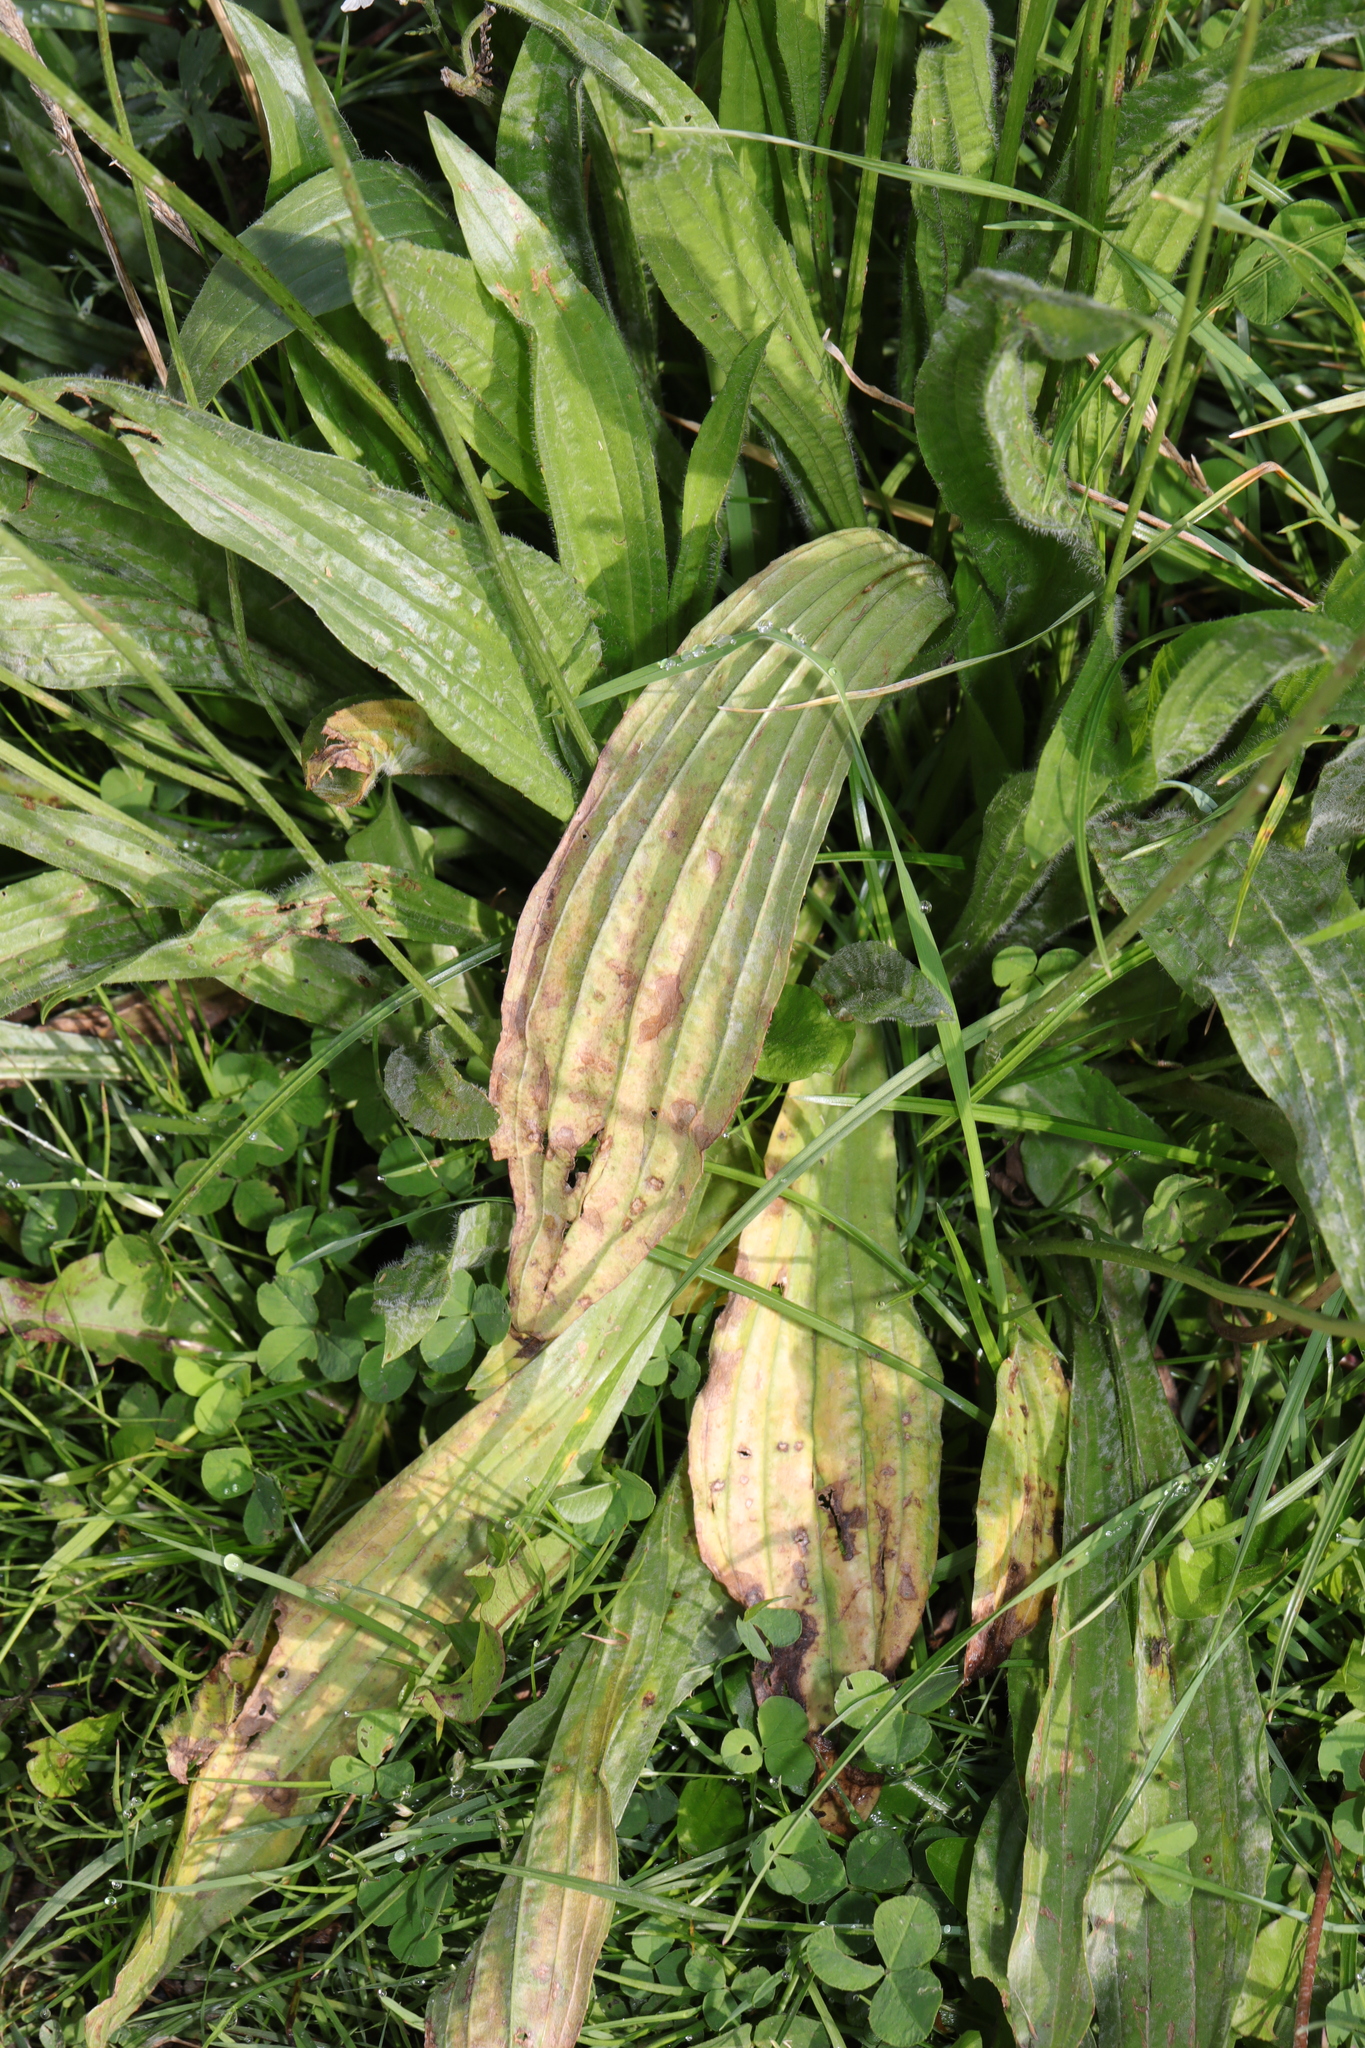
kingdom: Plantae
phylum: Tracheophyta
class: Magnoliopsida
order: Lamiales
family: Plantaginaceae
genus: Plantago
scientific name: Plantago lanceolata
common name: Ribwort plantain
